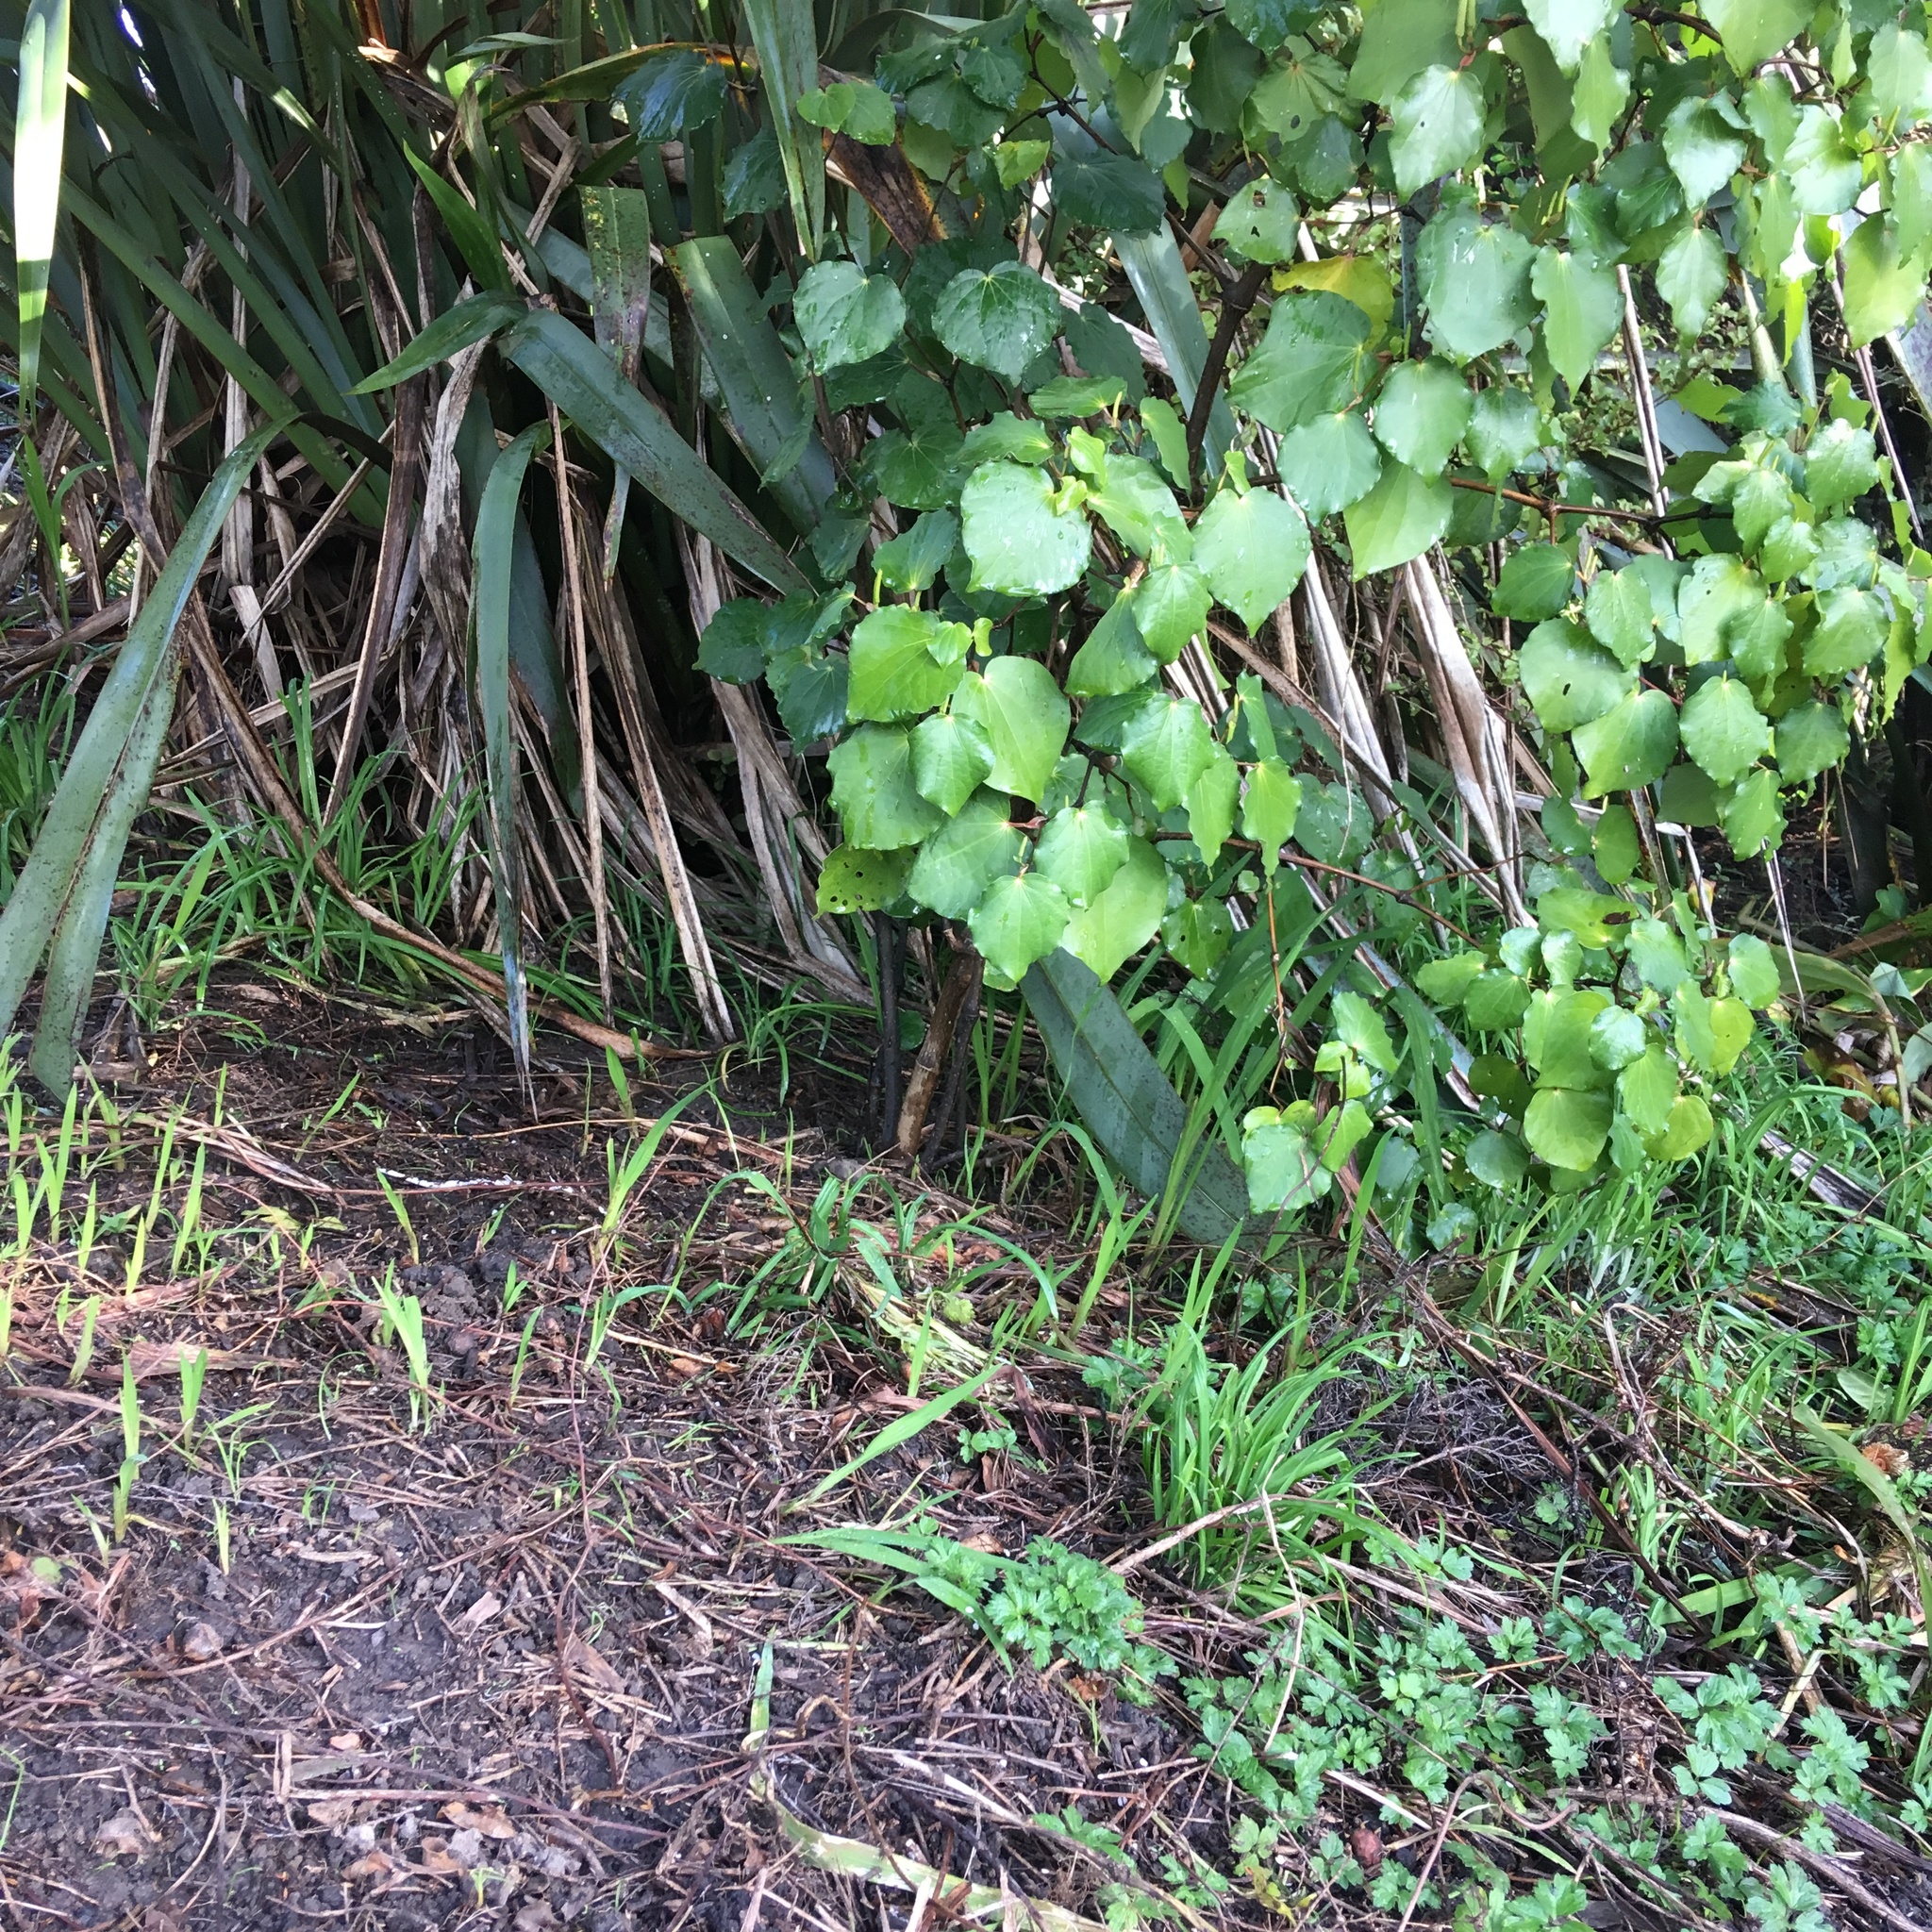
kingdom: Plantae
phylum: Tracheophyta
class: Liliopsida
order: Asparagales
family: Iridaceae
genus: Crocosmia
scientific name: Crocosmia crocosmiiflora
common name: Montbretia
